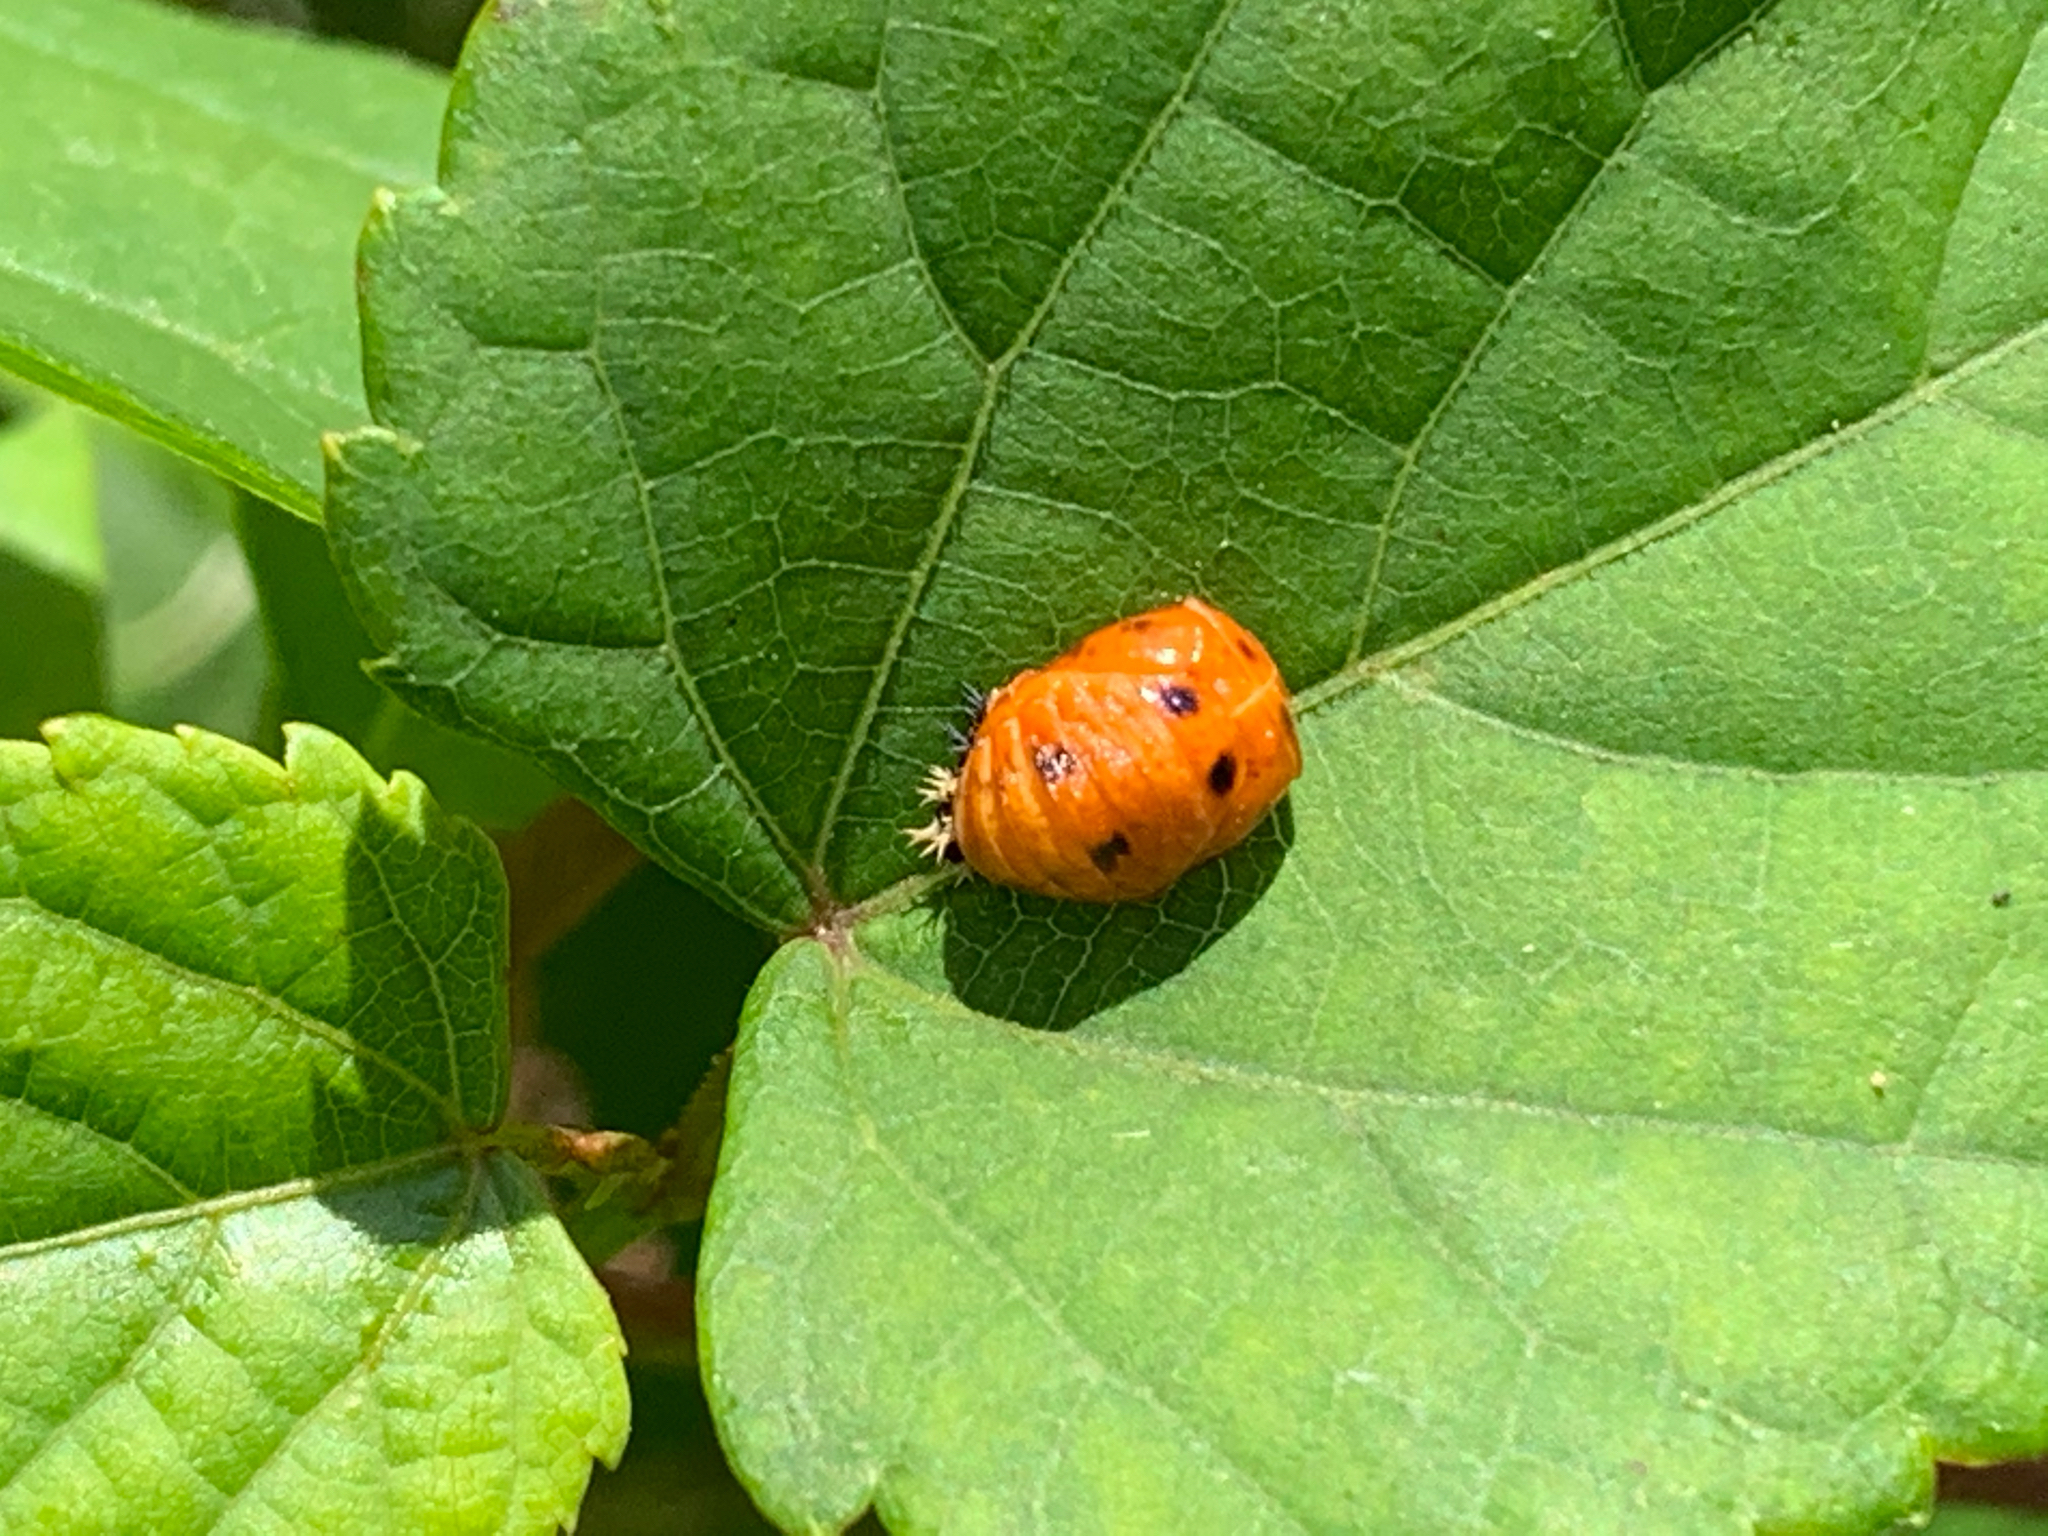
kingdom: Animalia
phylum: Arthropoda
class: Insecta
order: Coleoptera
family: Coccinellidae
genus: Harmonia
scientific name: Harmonia axyridis
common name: Harlequin ladybird
